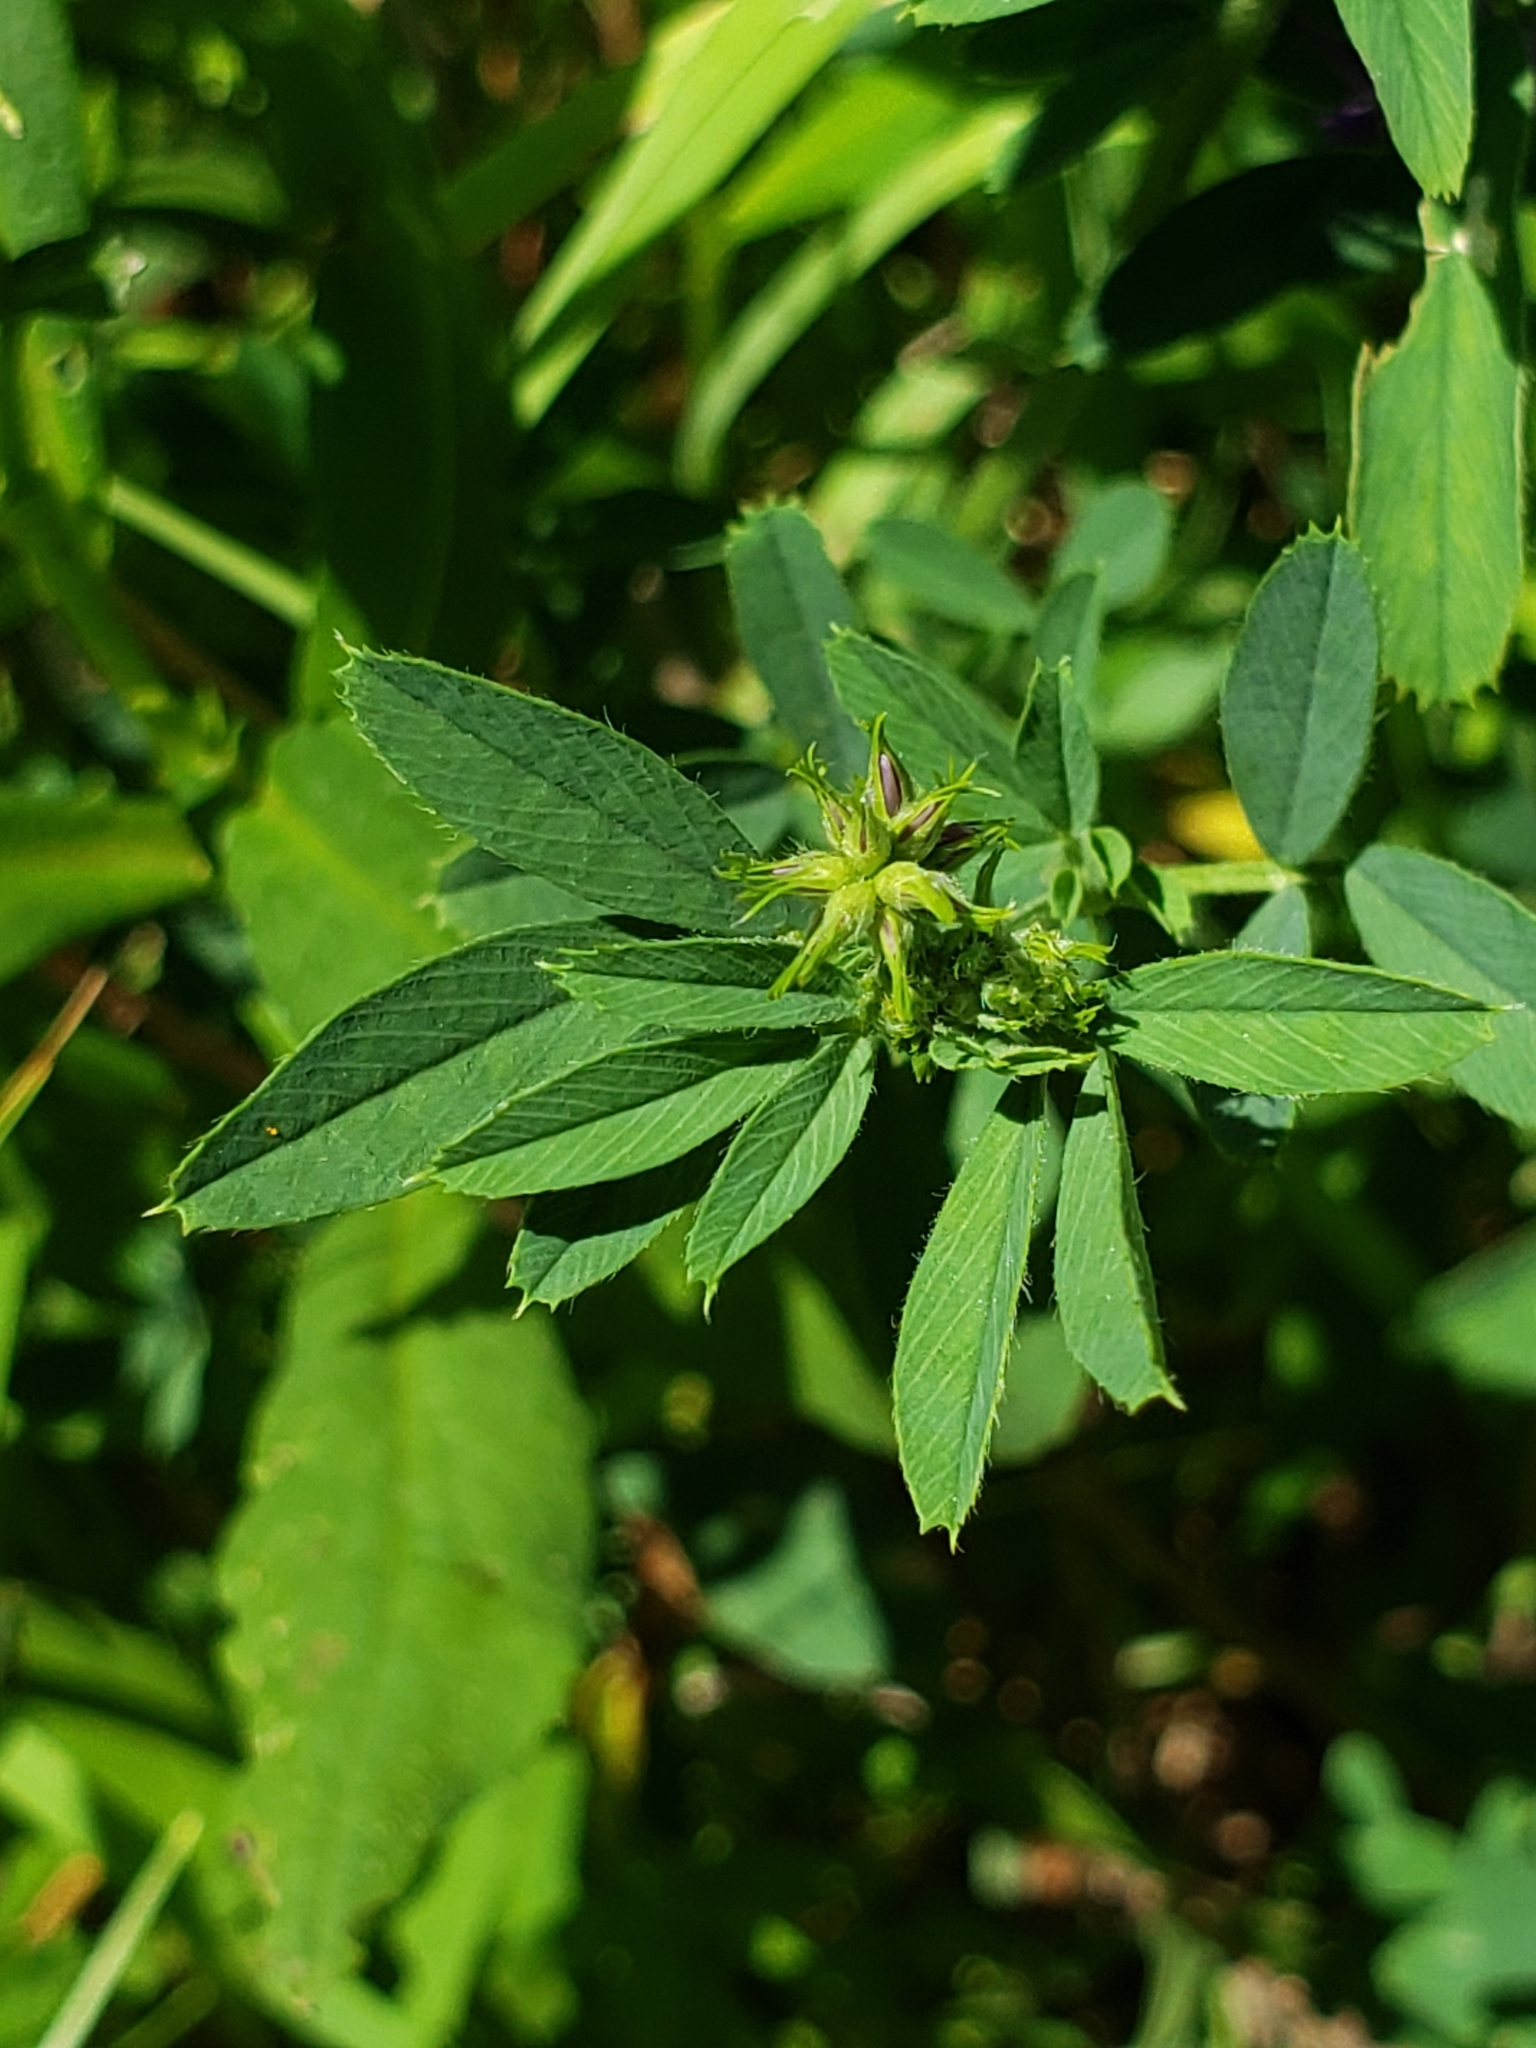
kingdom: Plantae
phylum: Tracheophyta
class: Magnoliopsida
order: Fabales
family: Fabaceae
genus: Medicago
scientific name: Medicago sativa
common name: Alfalfa
